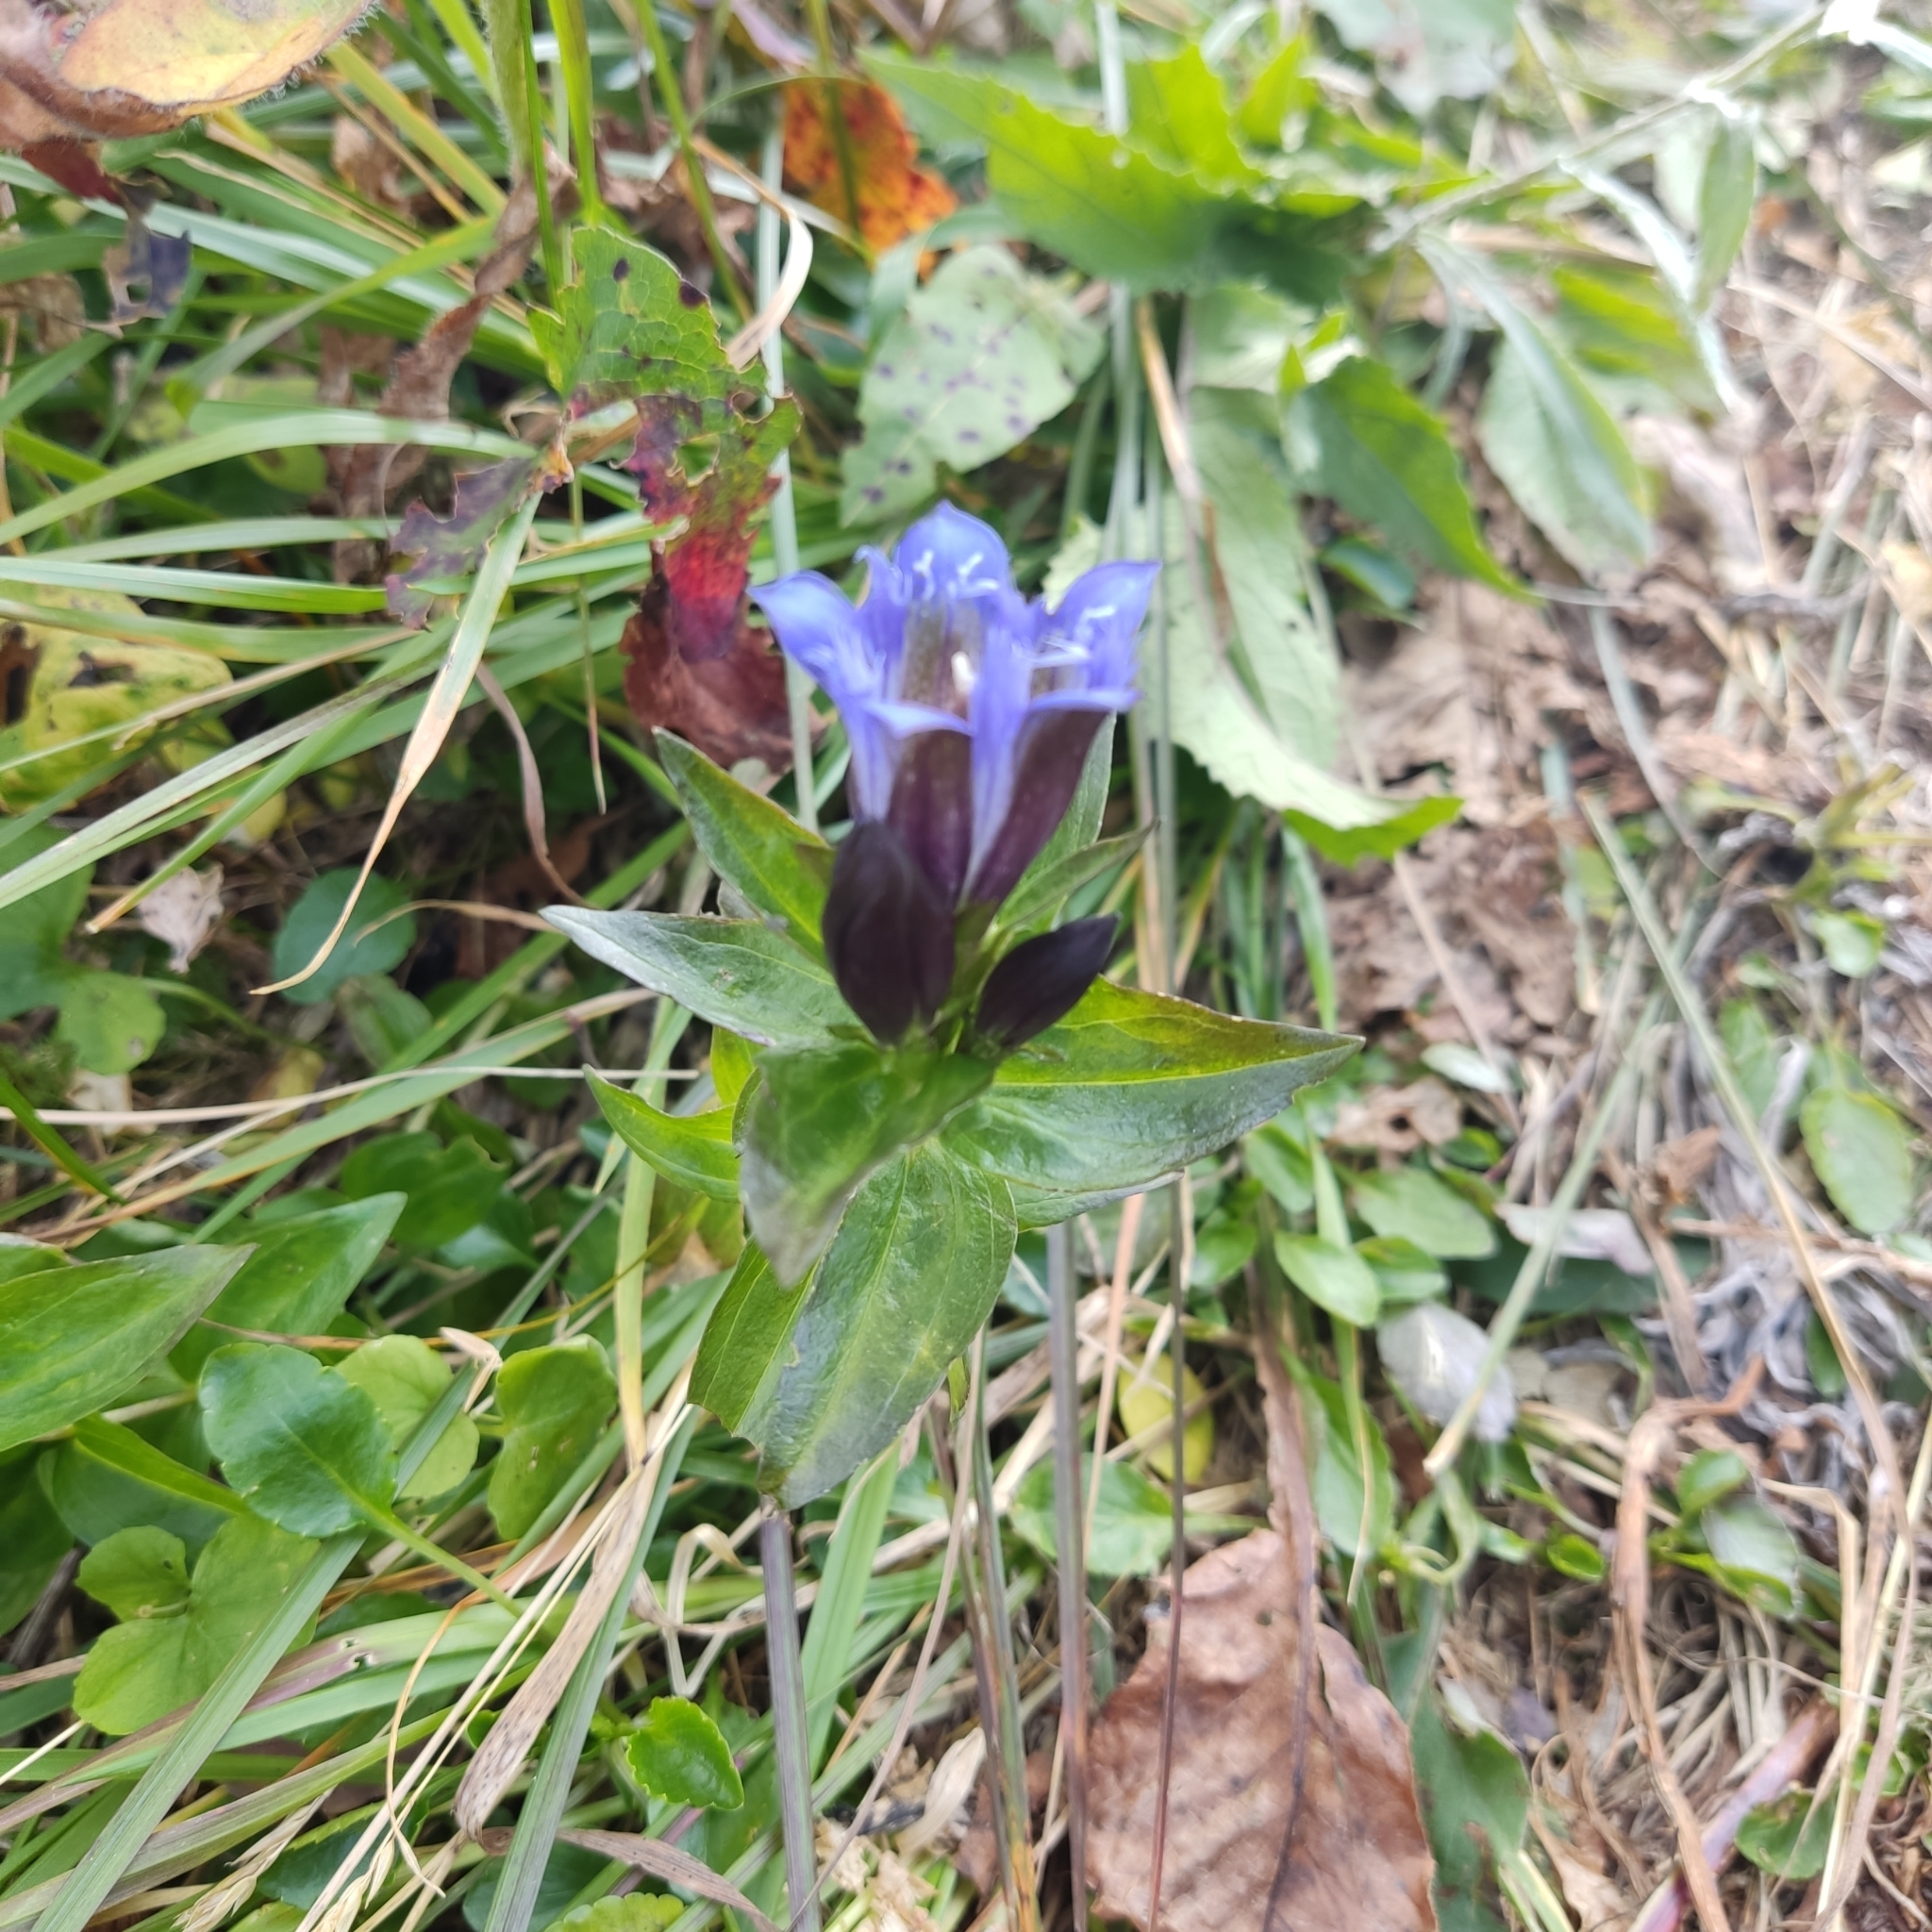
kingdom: Plantae
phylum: Tracheophyta
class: Magnoliopsida
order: Gentianales
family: Gentianaceae
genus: Gentiana
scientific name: Gentiana dschungarica
